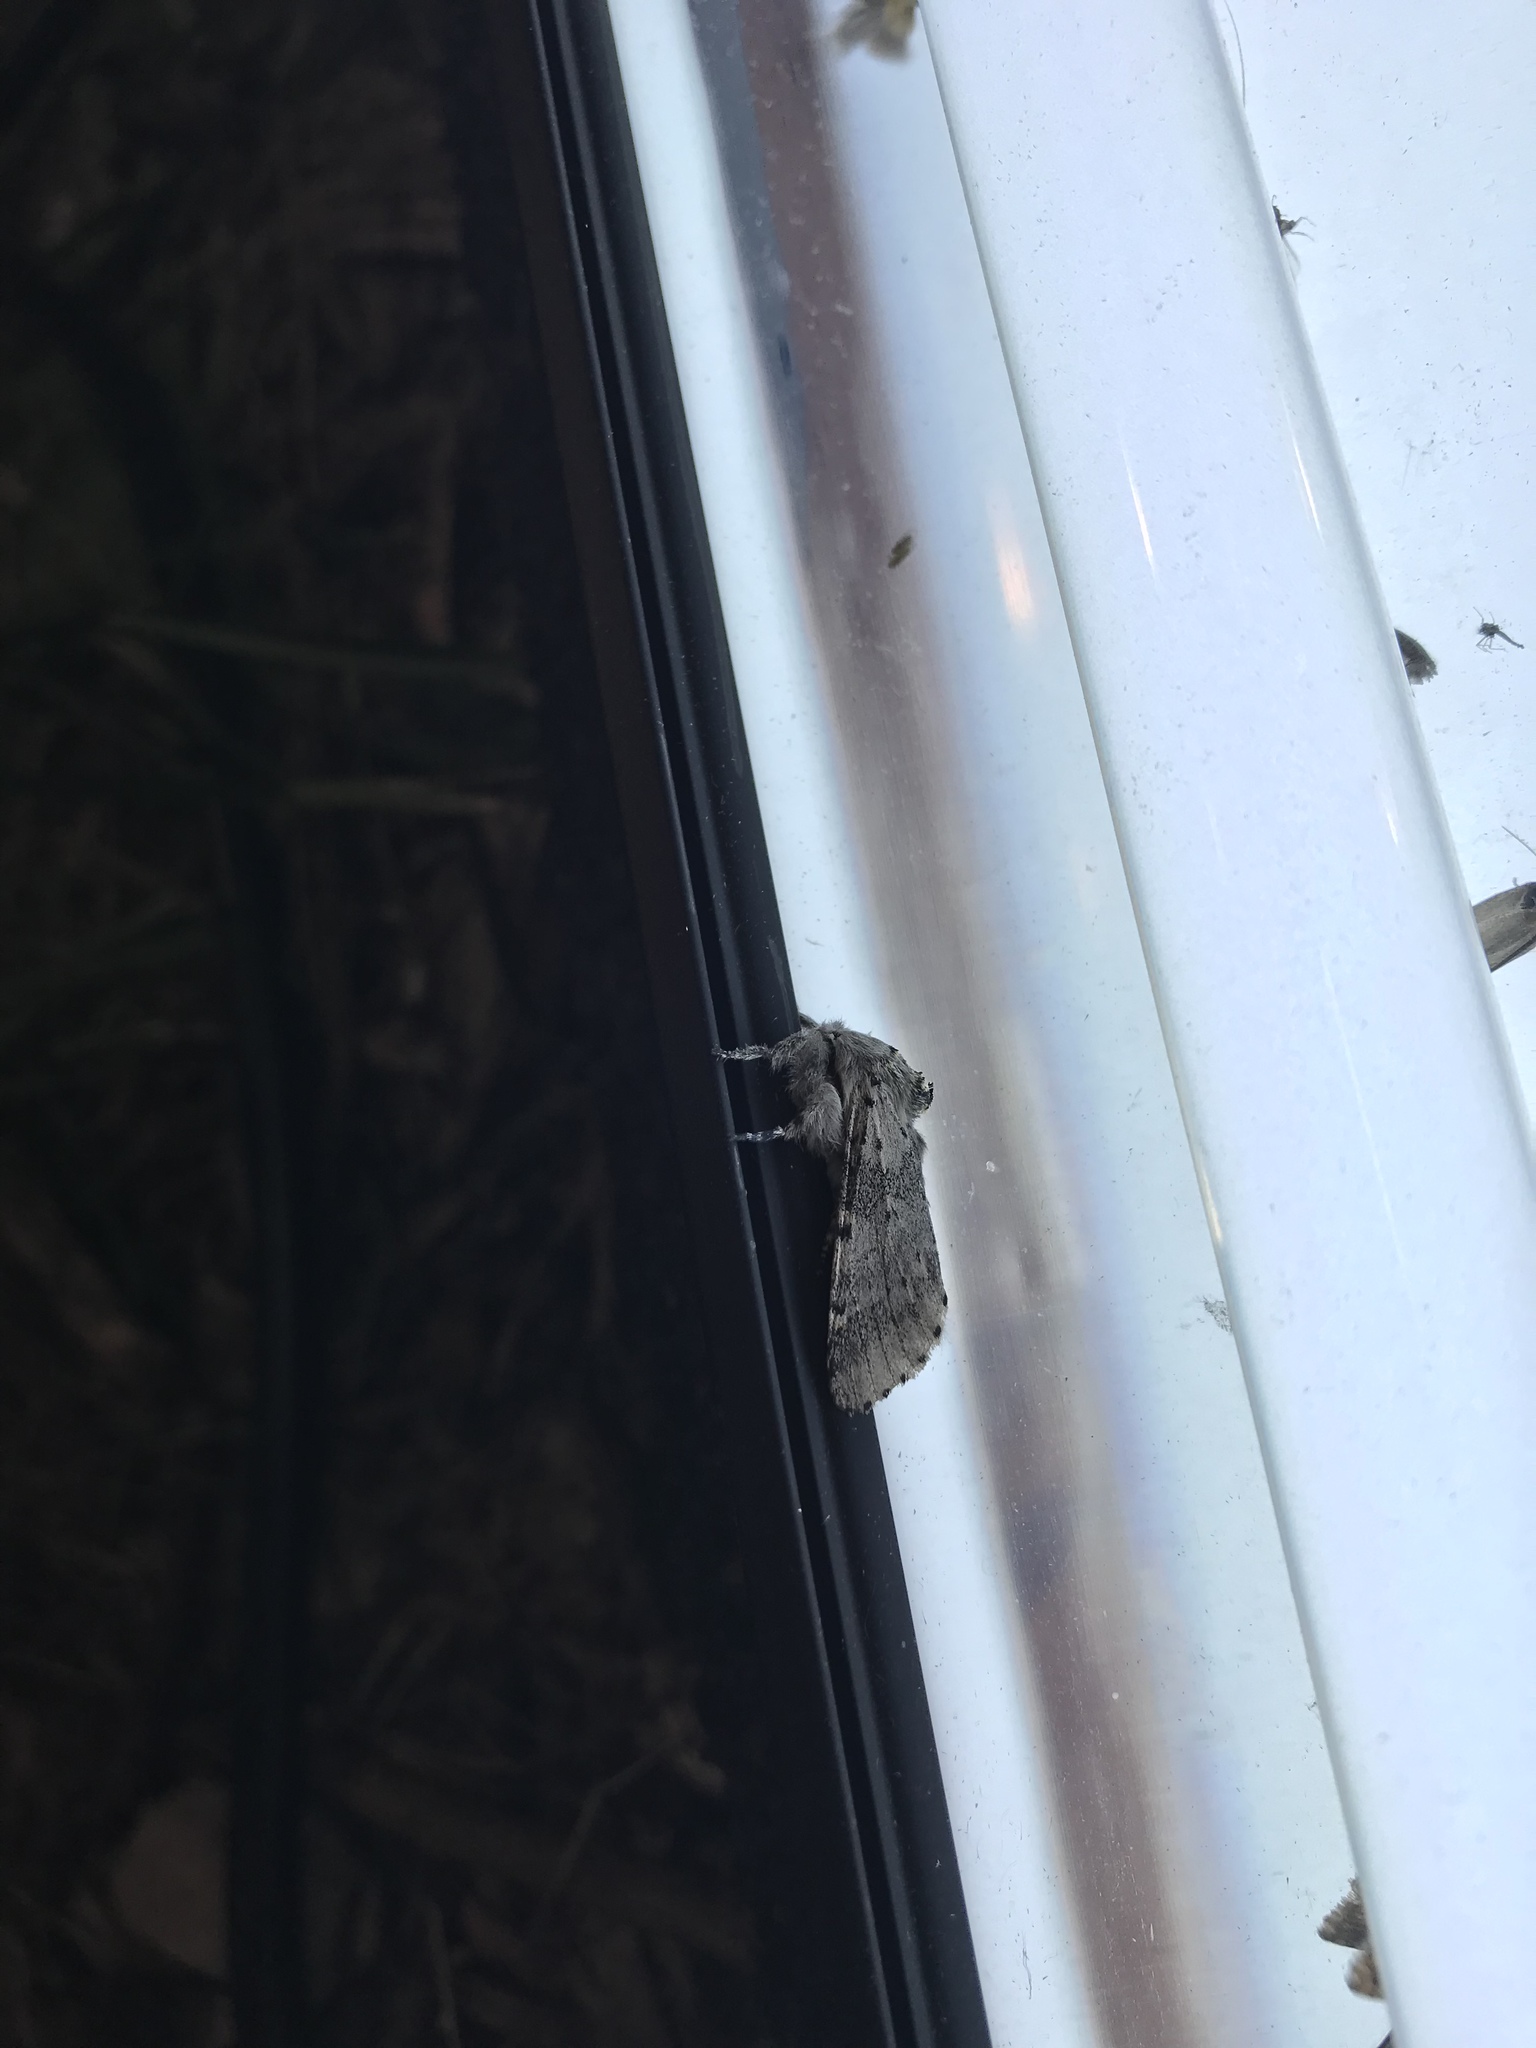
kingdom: Animalia
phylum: Arthropoda
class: Insecta
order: Lepidoptera
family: Notodontidae
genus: Furcula
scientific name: Furcula cinerea
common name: Gray furcula
